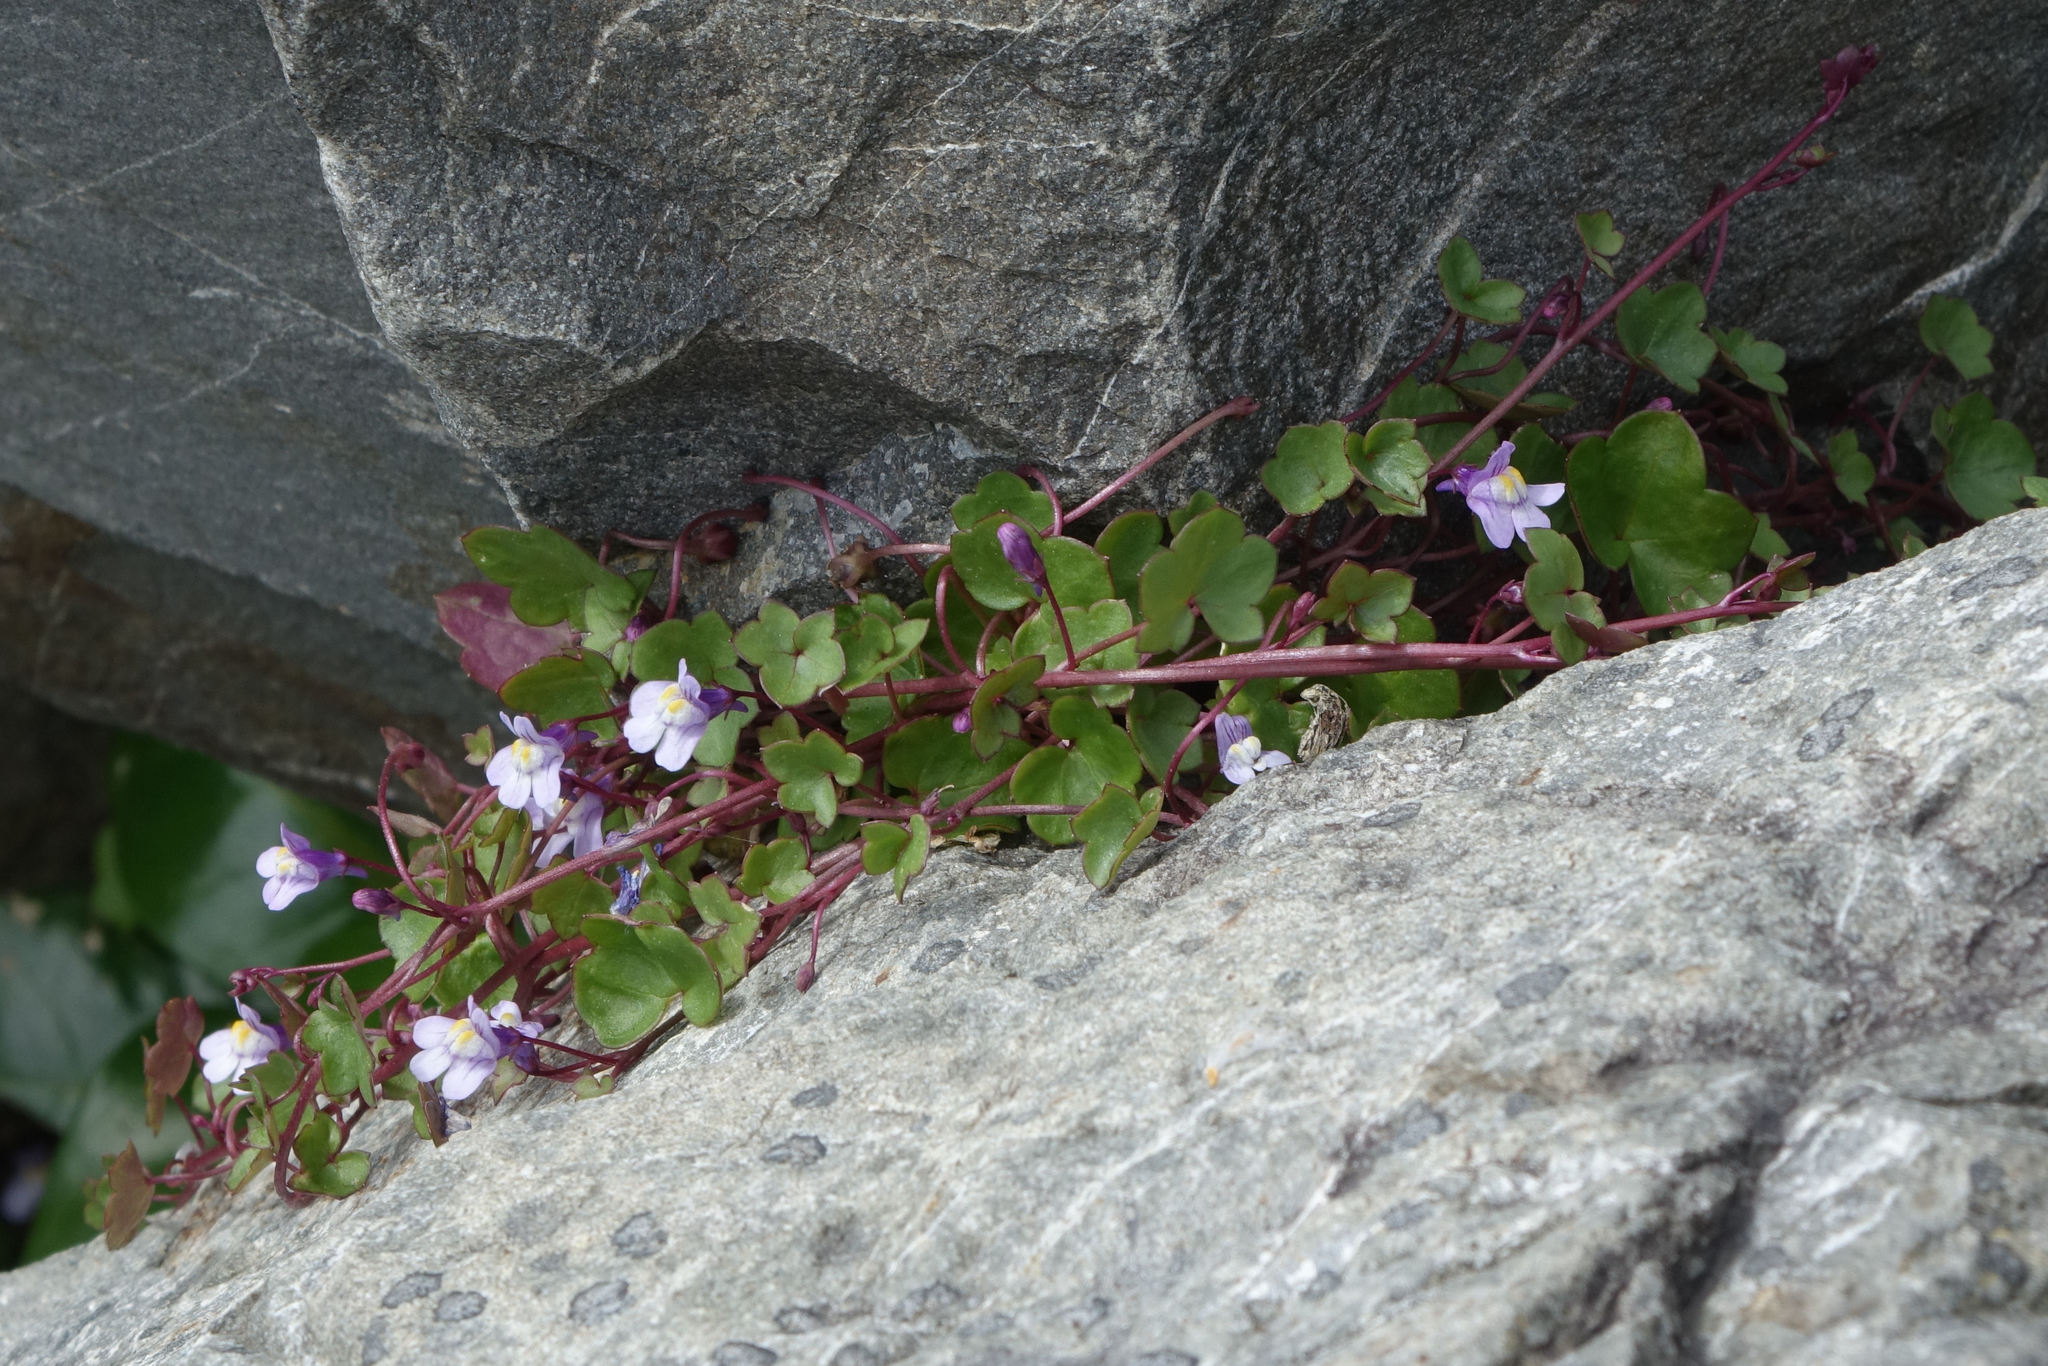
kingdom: Plantae
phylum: Tracheophyta
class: Magnoliopsida
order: Lamiales
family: Plantaginaceae
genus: Cymbalaria
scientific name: Cymbalaria muralis
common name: Ivy-leaved toadflax
